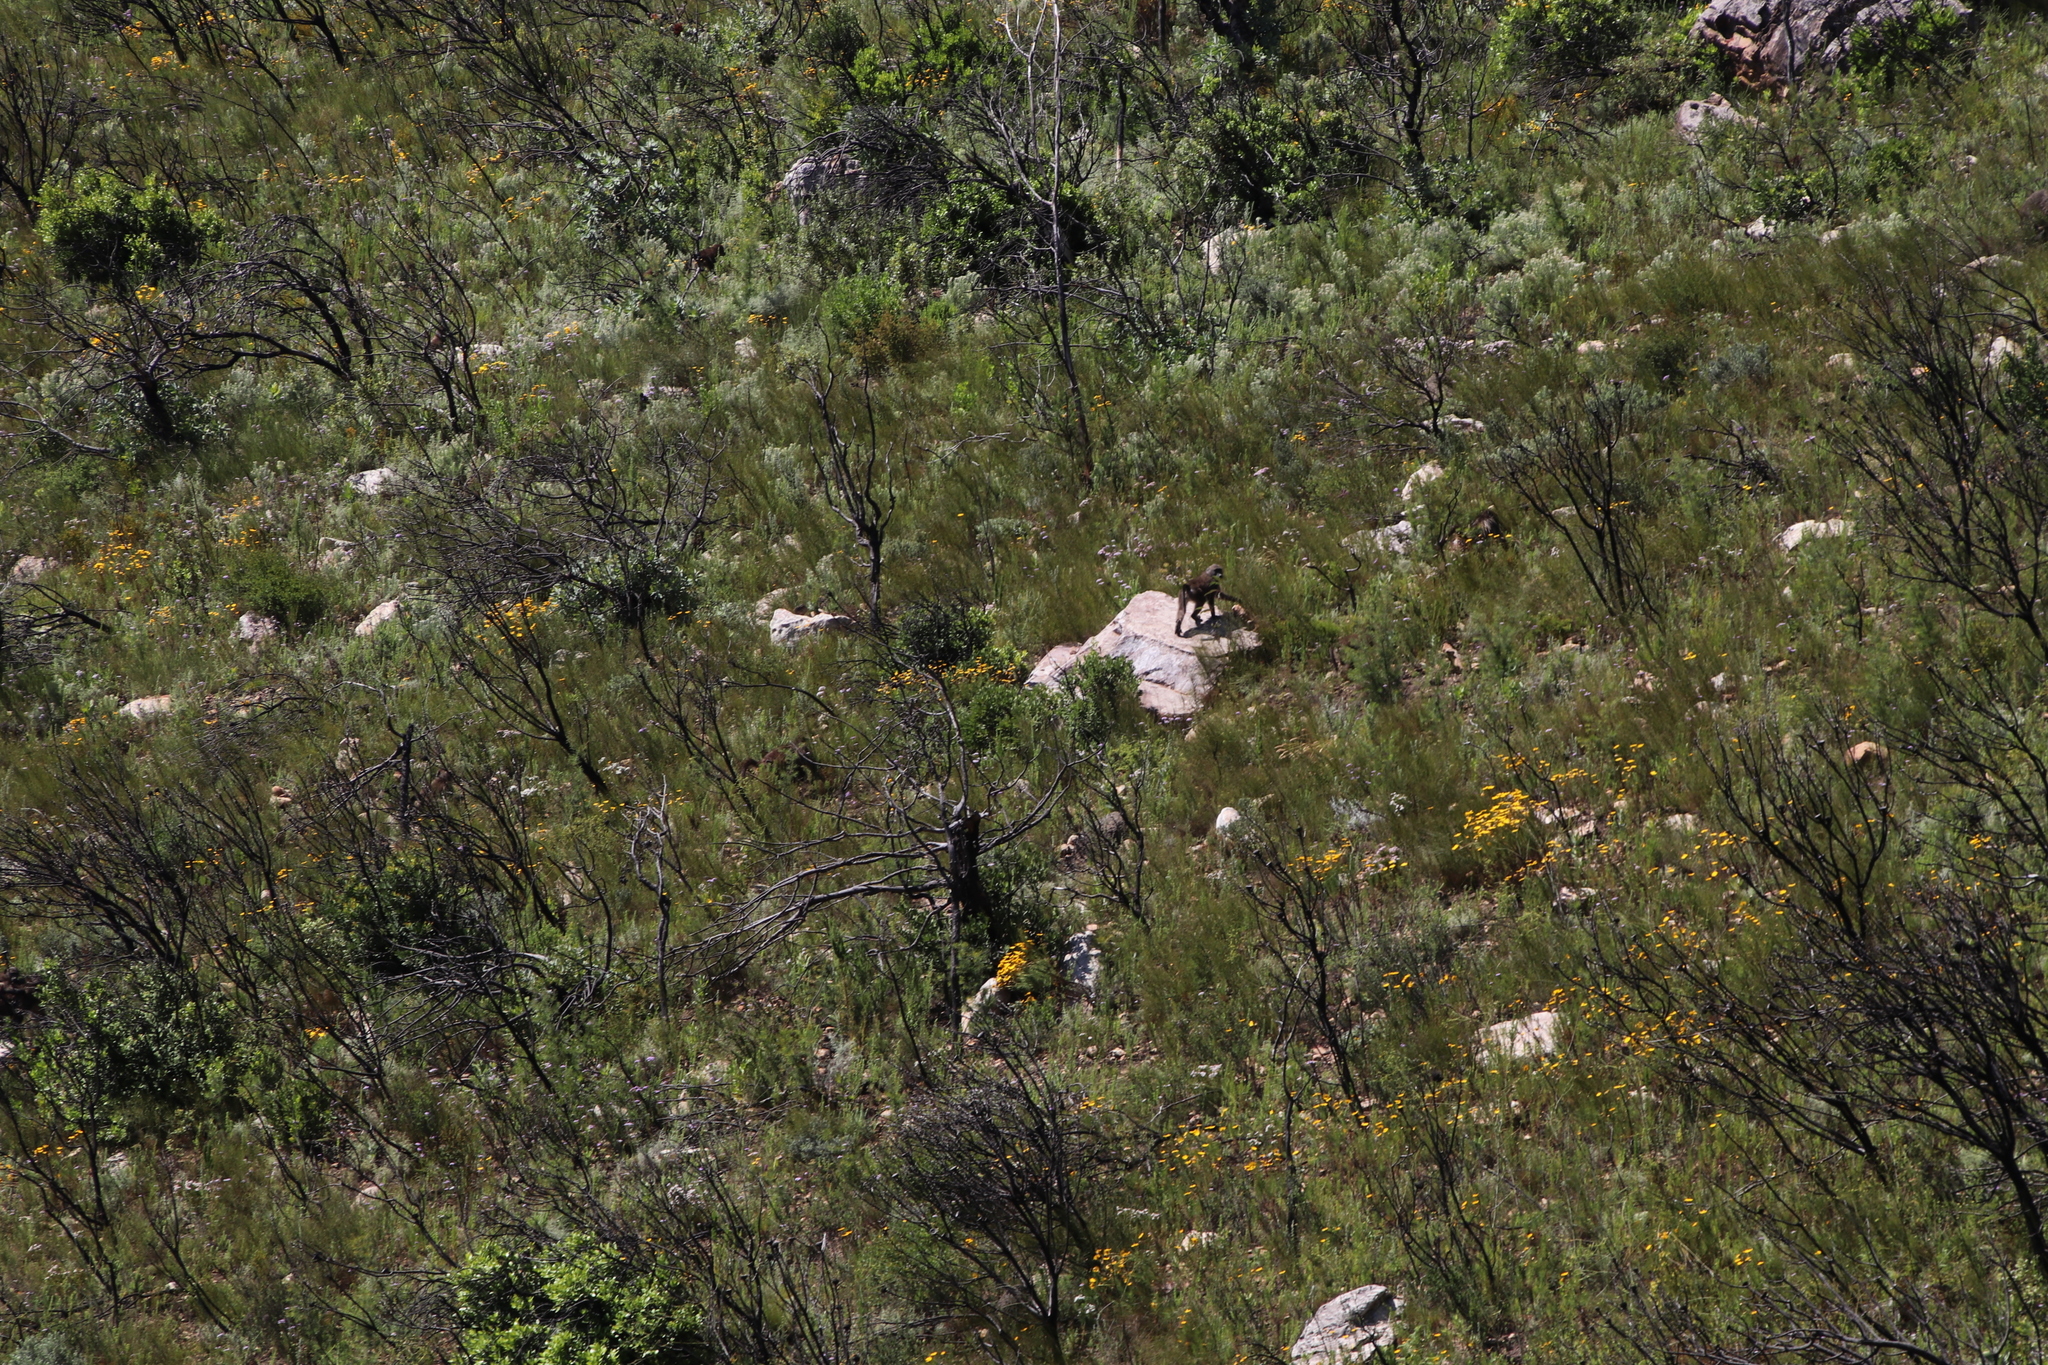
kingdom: Animalia
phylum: Chordata
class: Mammalia
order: Primates
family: Cercopithecidae
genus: Papio
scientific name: Papio ursinus
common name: Chacma baboon
